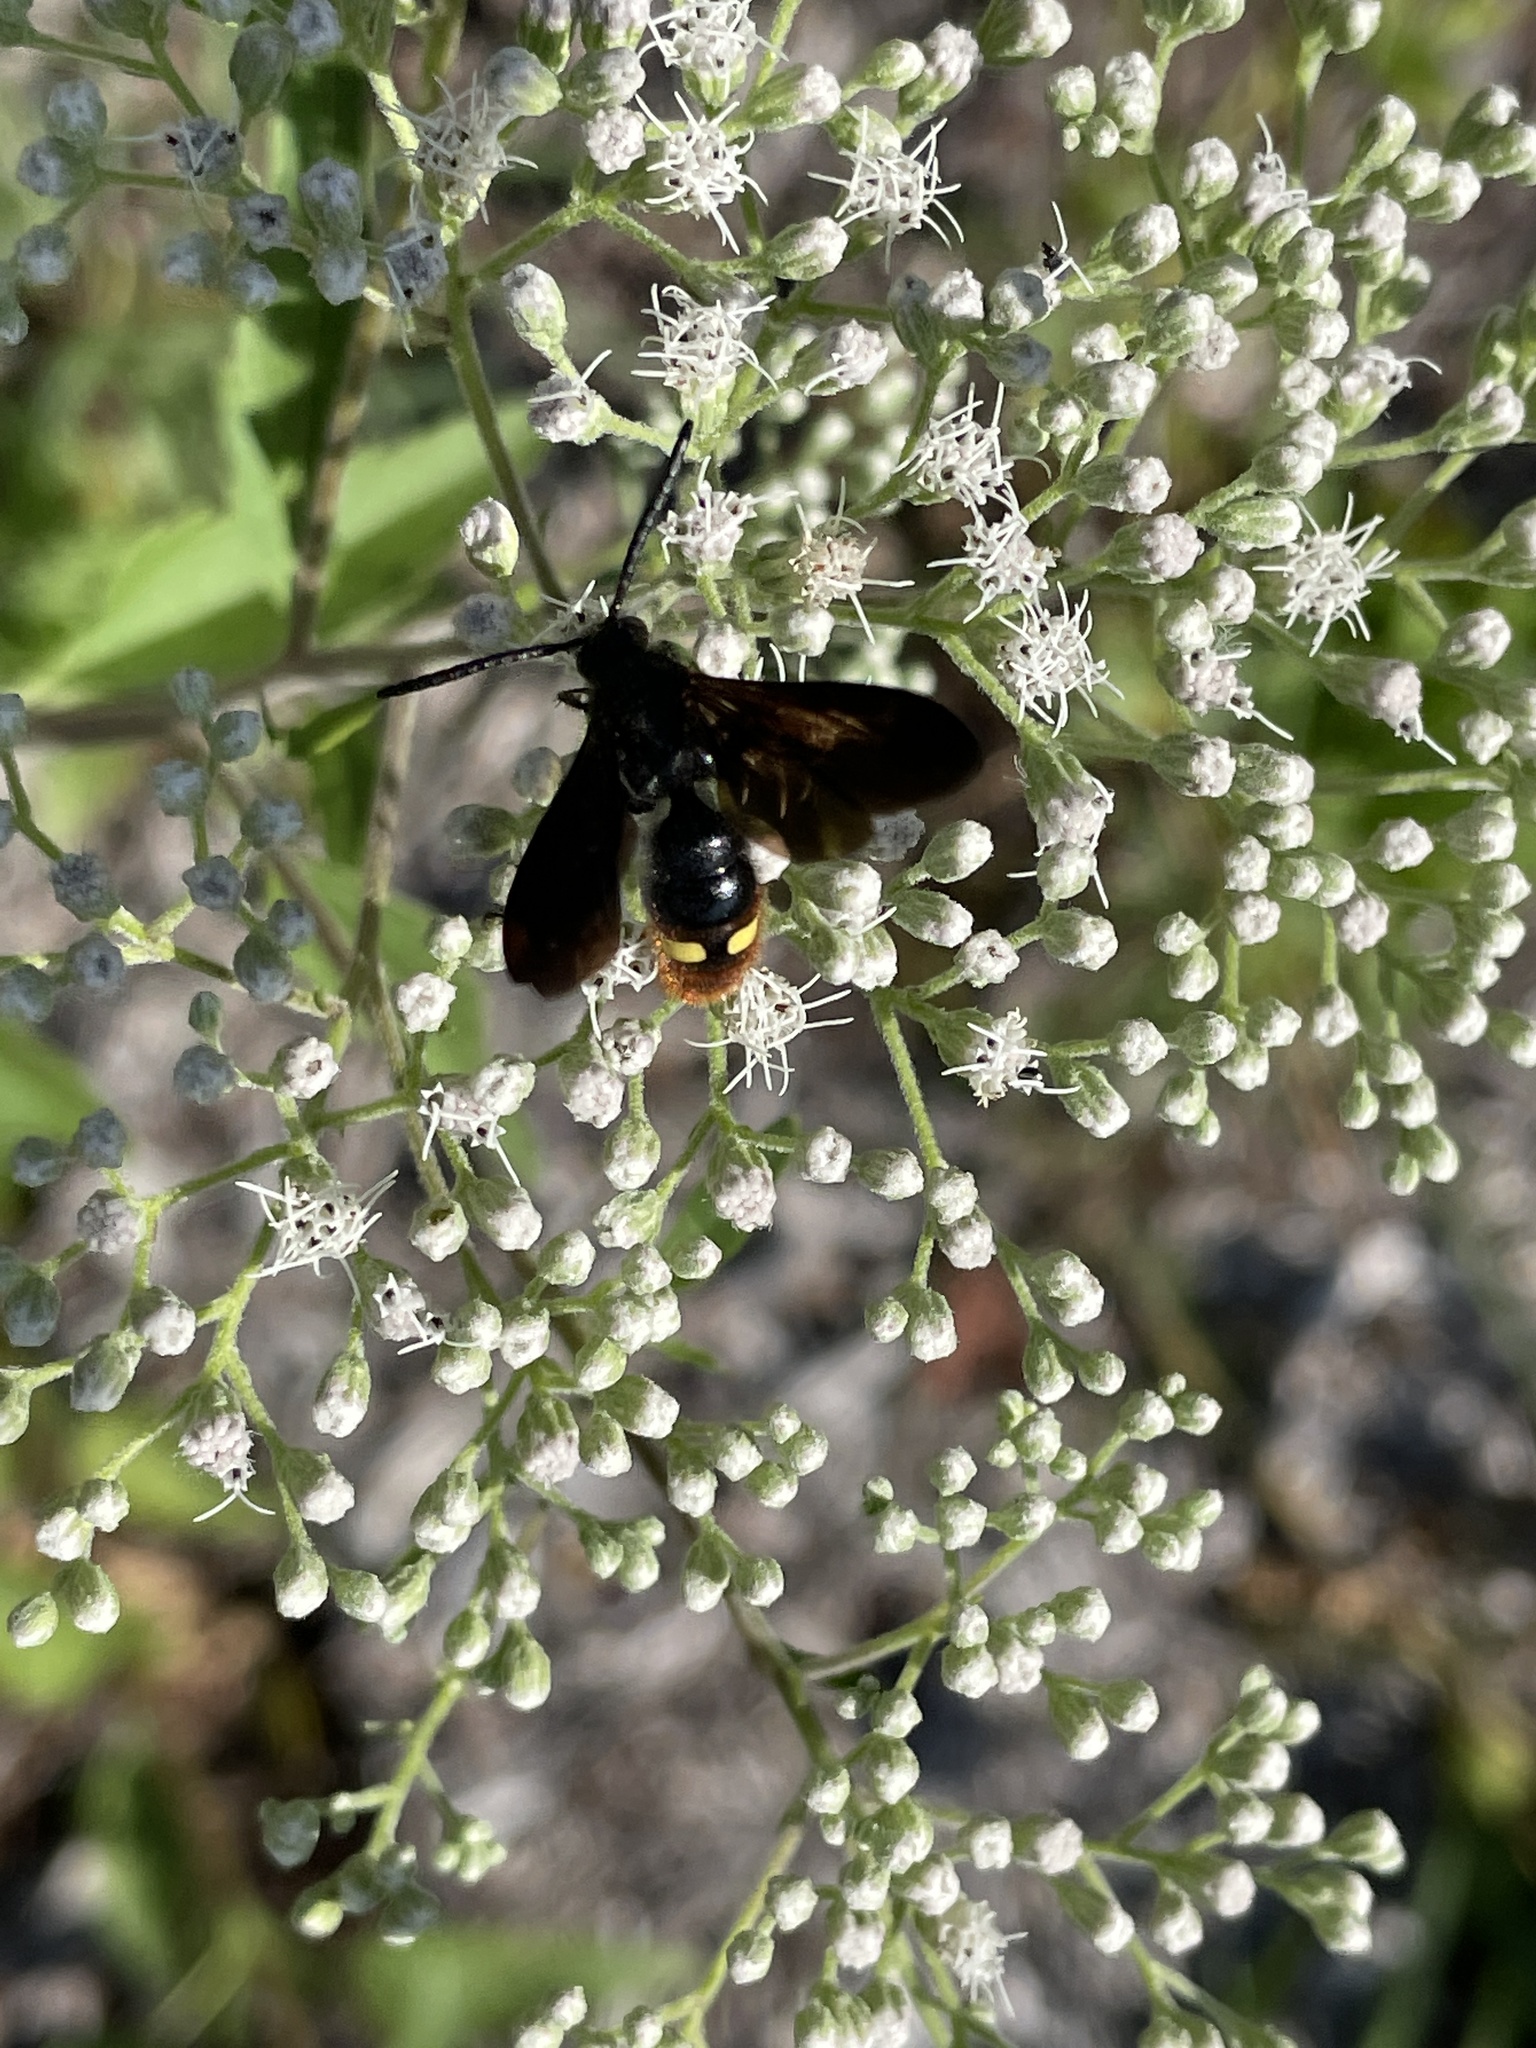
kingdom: Animalia
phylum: Arthropoda
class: Insecta
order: Hymenoptera
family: Scoliidae
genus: Scolia
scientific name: Scolia dubia
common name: Blue-winged scoliid wasp
